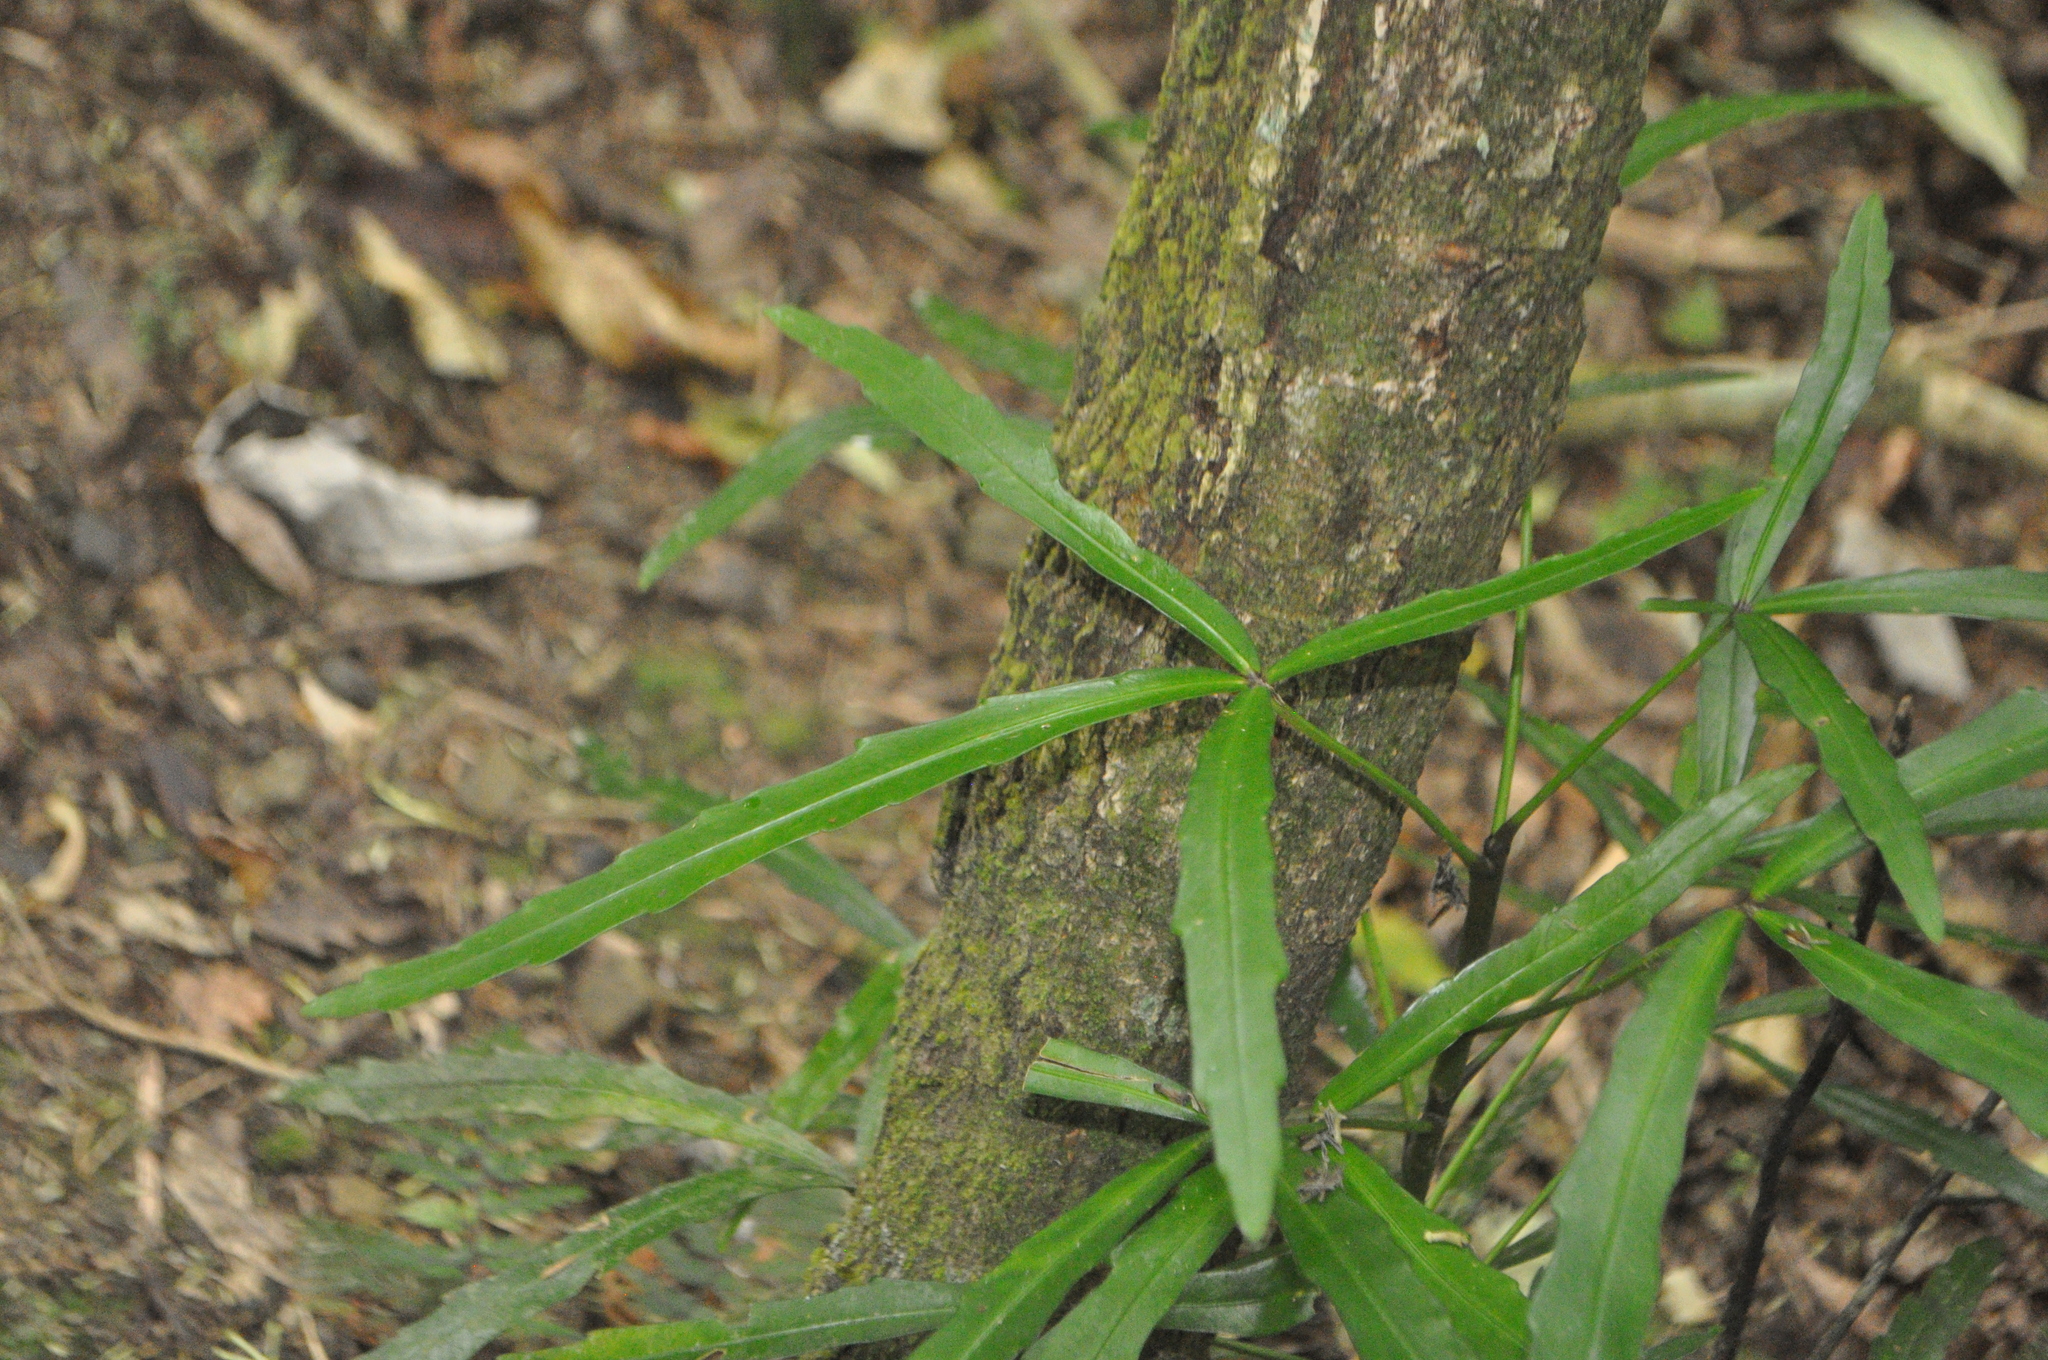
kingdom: Plantae
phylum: Tracheophyta
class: Magnoliopsida
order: Apiales
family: Araliaceae
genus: Pseudopanax
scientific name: Pseudopanax
